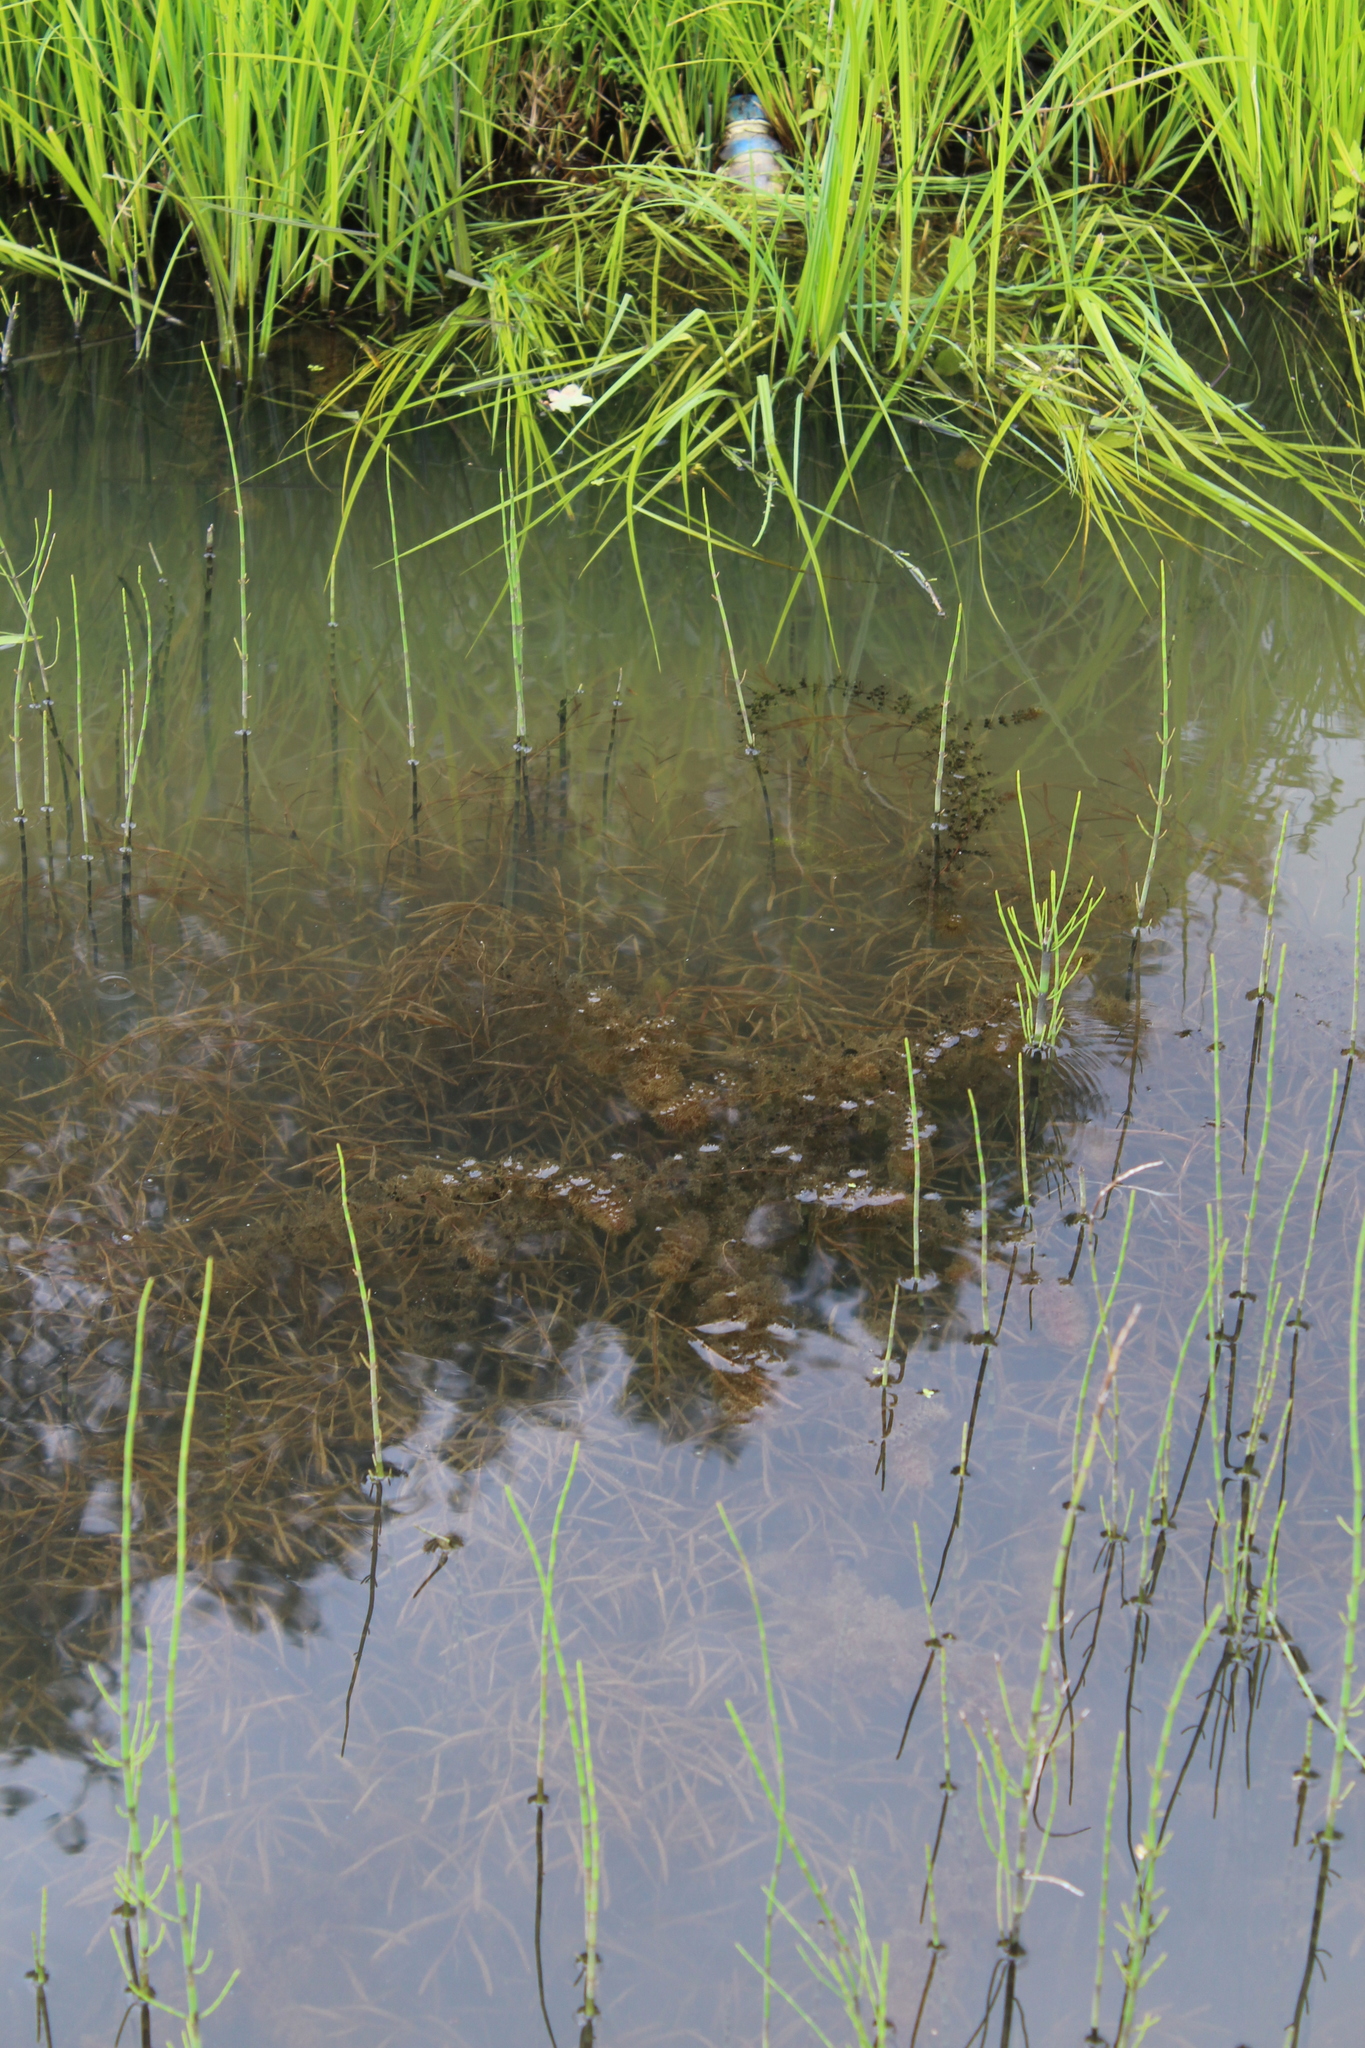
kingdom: Plantae
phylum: Tracheophyta
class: Liliopsida
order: Alismatales
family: Potamogetonaceae
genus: Potamogeton
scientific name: Potamogeton compressus
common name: Grass-wrack pondweed
